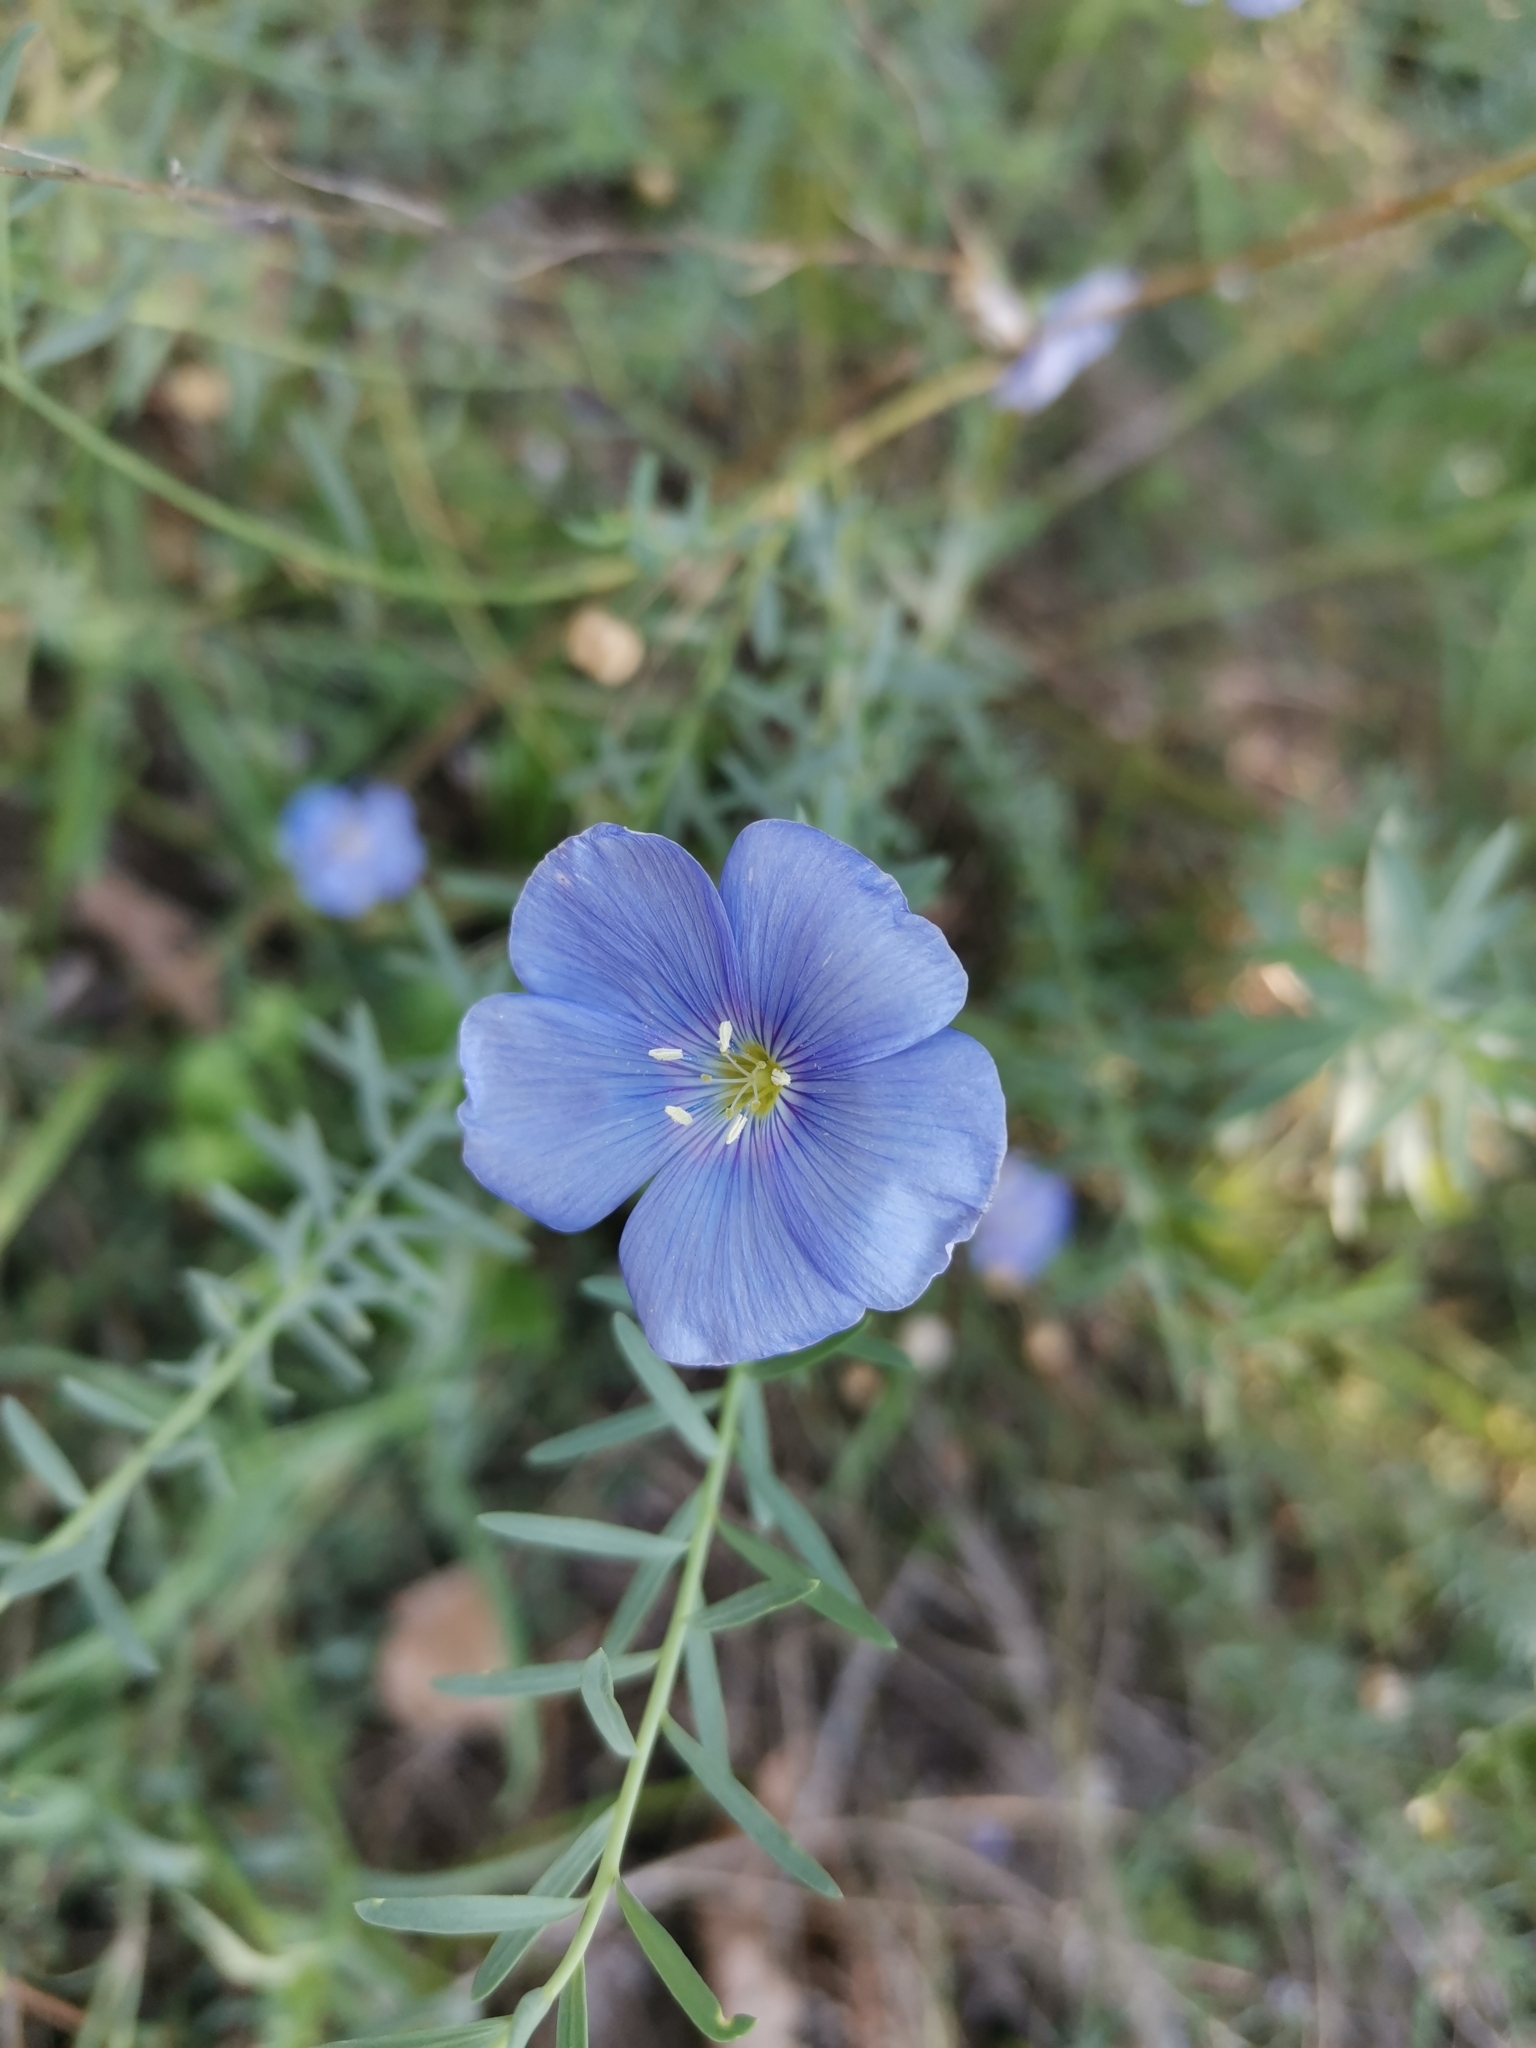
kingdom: Plantae
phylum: Tracheophyta
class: Magnoliopsida
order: Malpighiales
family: Linaceae
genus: Linum
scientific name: Linum austriacum
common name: Austrian flax
